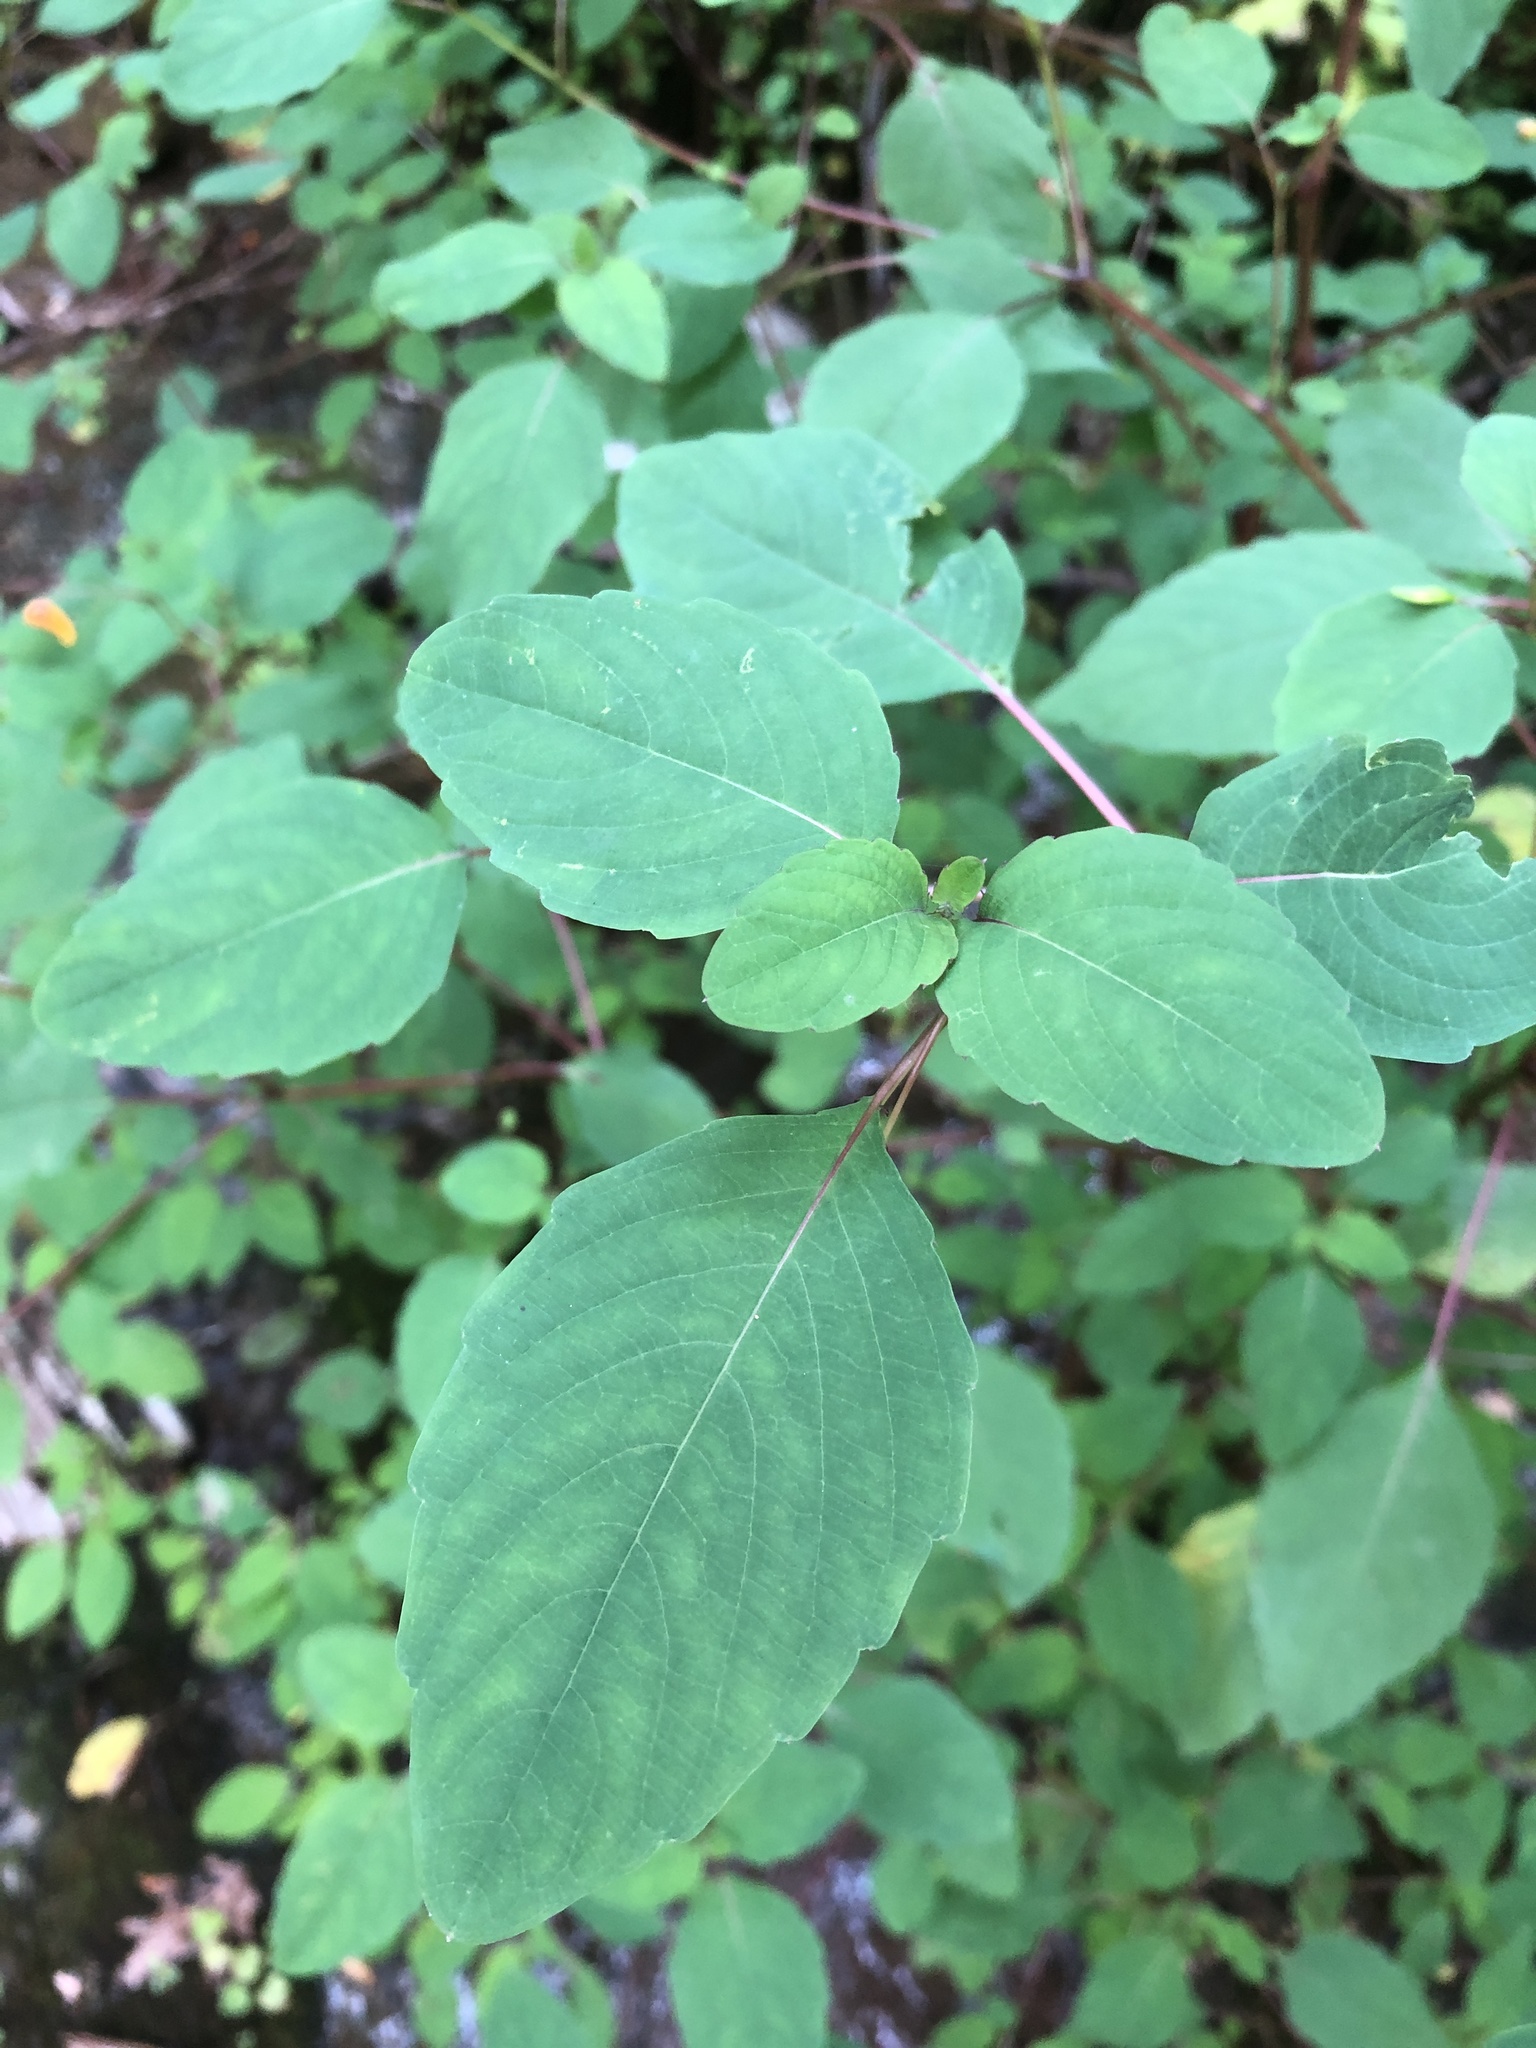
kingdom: Plantae
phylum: Tracheophyta
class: Magnoliopsida
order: Ericales
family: Balsaminaceae
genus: Impatiens
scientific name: Impatiens capensis
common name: Orange balsam
